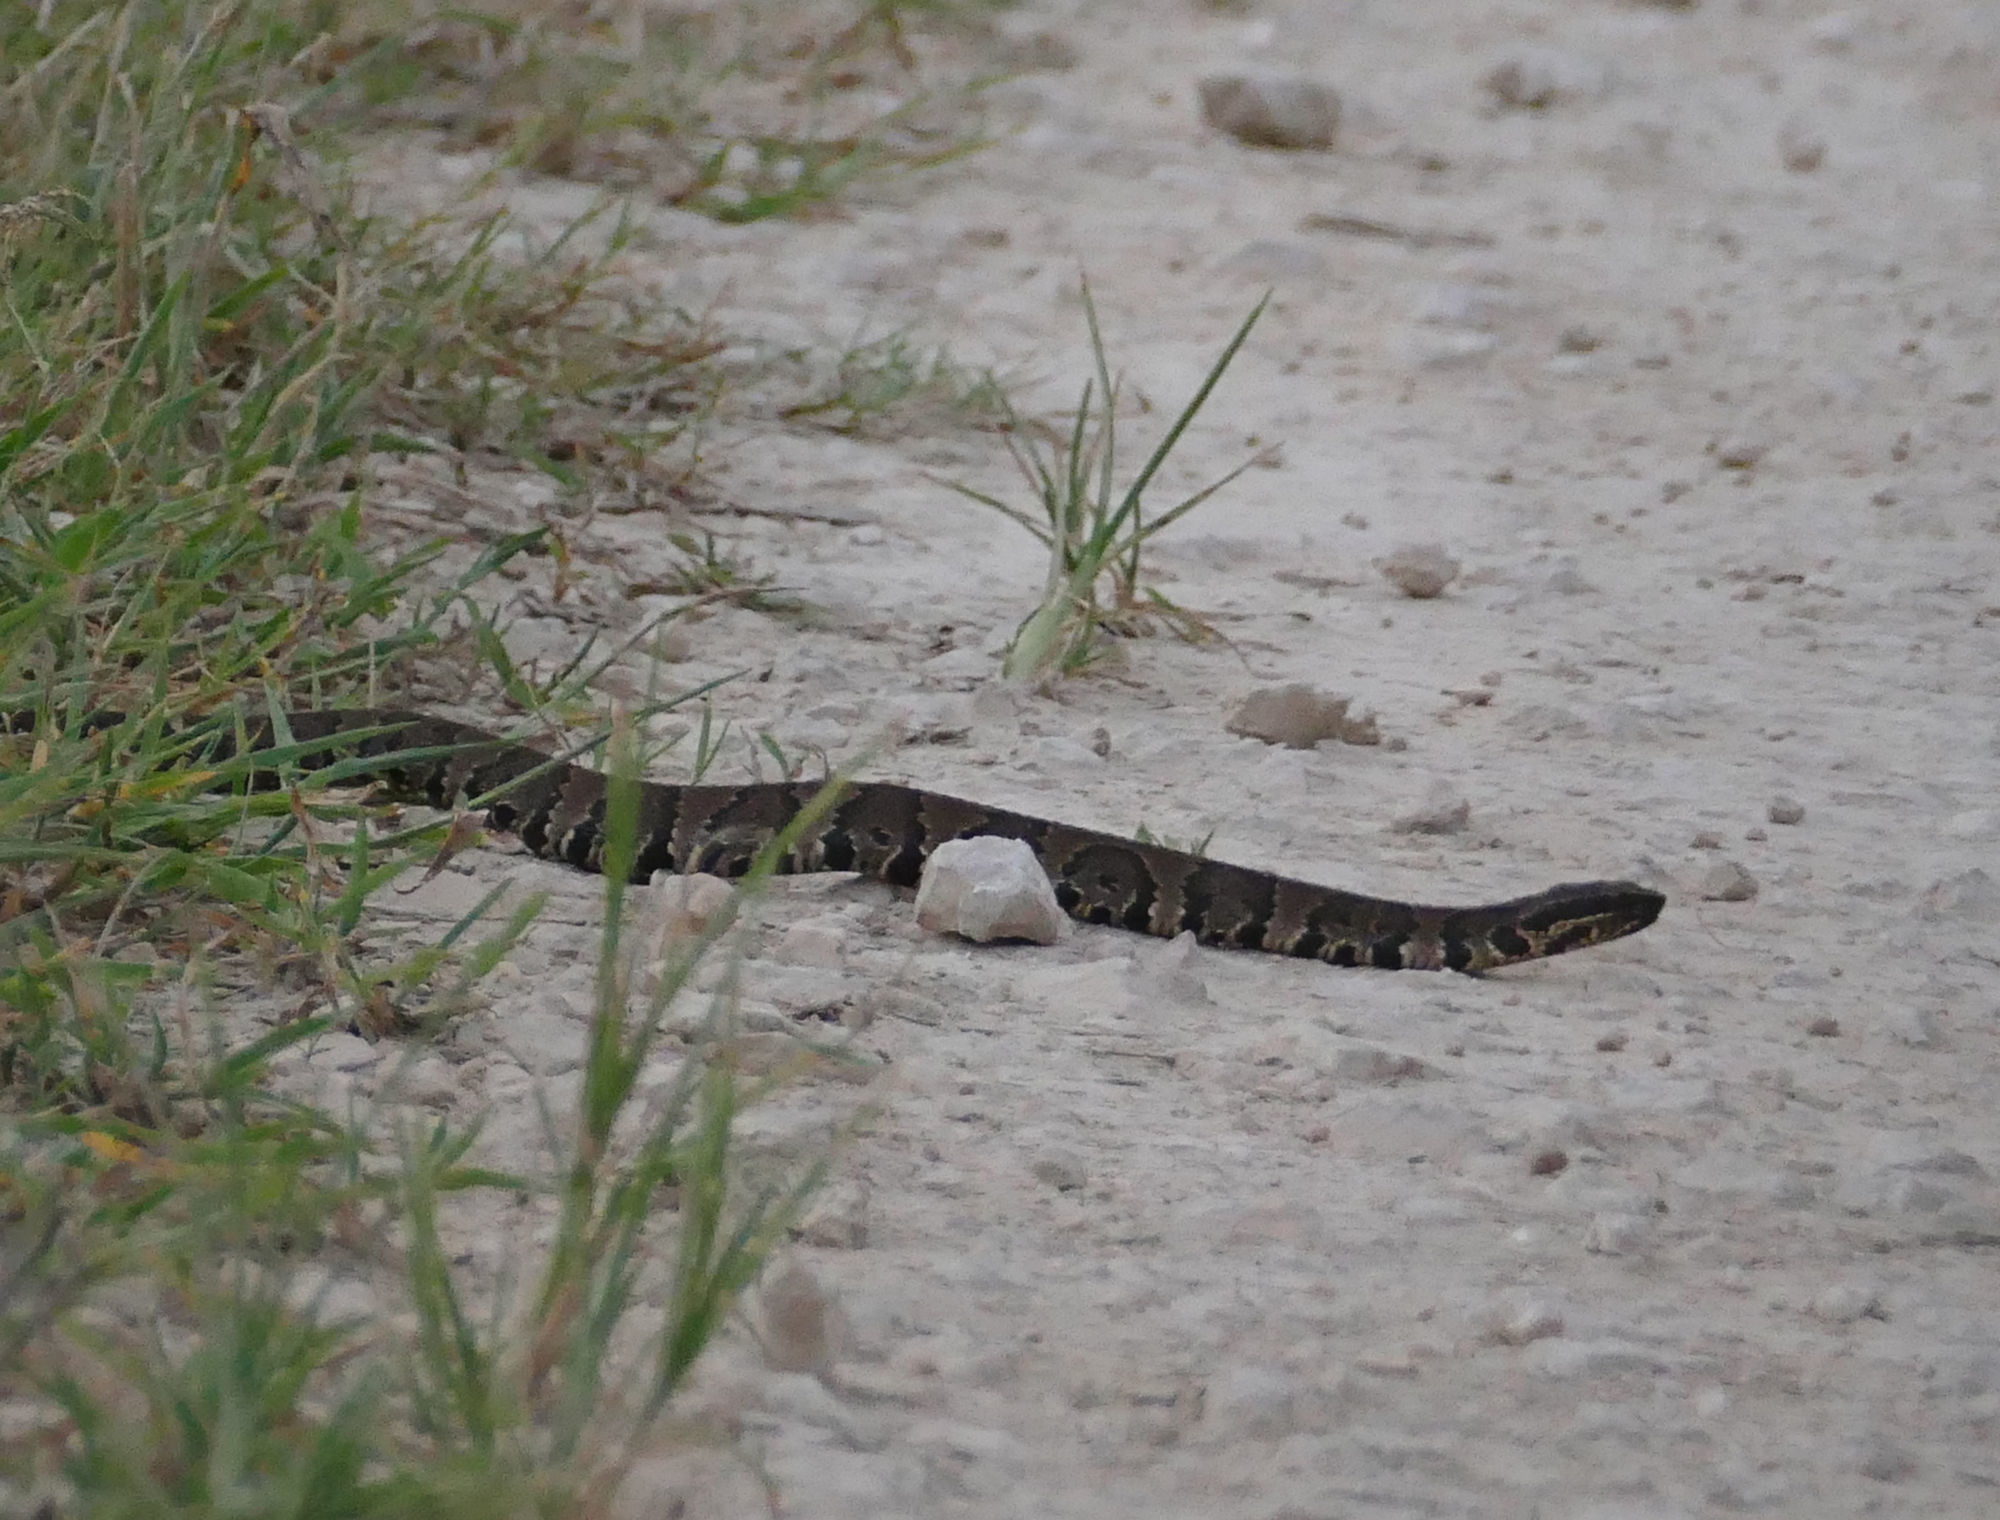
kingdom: Animalia
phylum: Chordata
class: Squamata
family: Viperidae
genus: Agkistrodon
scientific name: Agkistrodon piscivorus
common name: Cottonmouth
